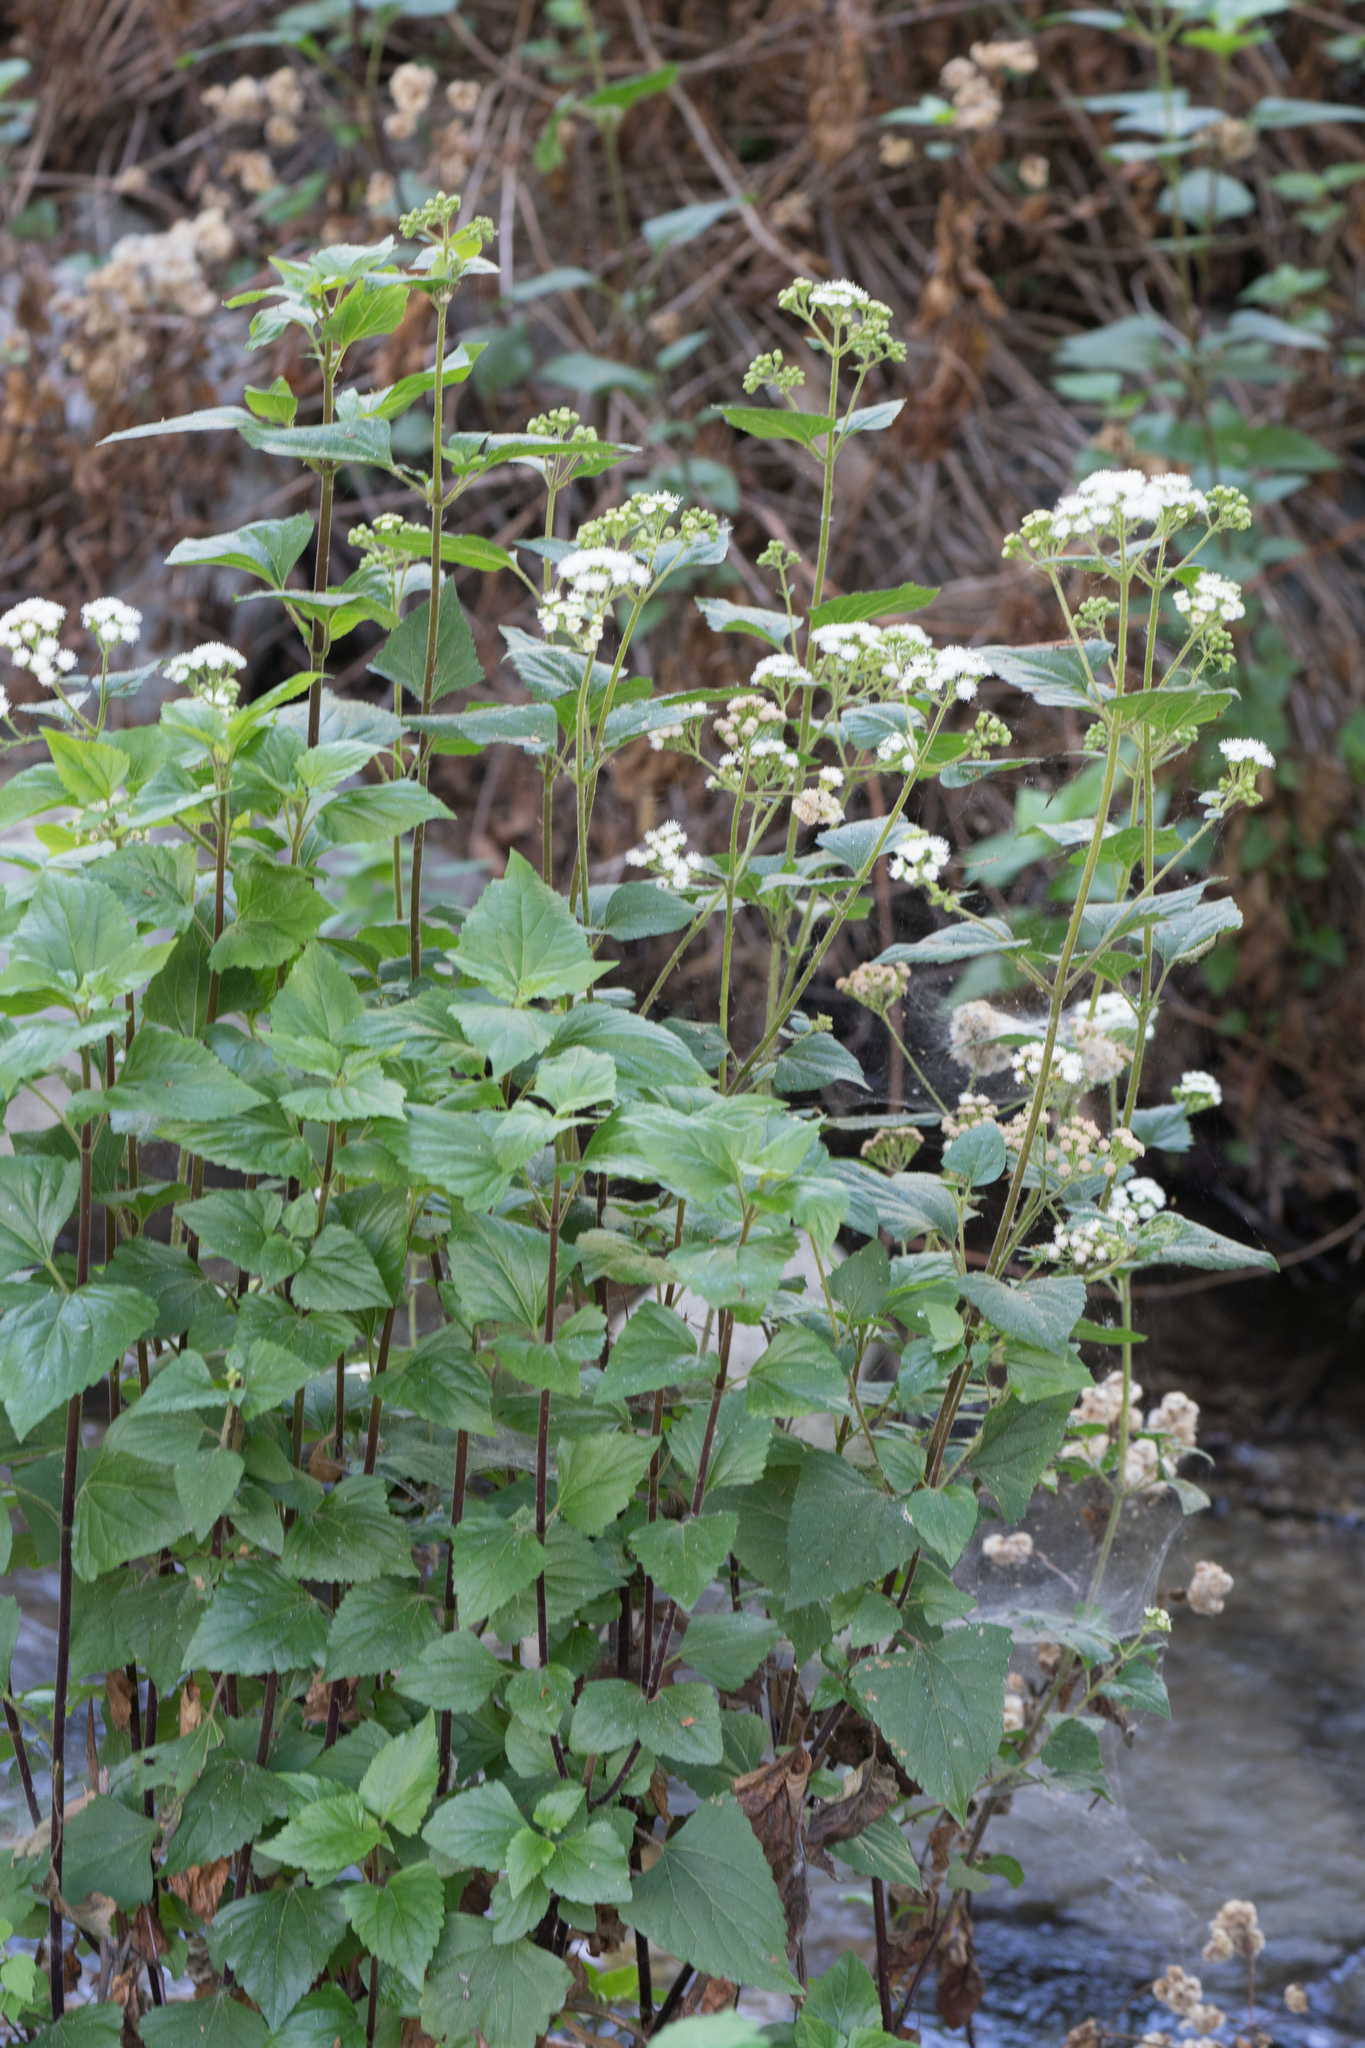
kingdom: Plantae
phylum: Tracheophyta
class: Magnoliopsida
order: Asterales
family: Asteraceae
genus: Ageratina
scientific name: Ageratina adenophora
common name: Sticky snakeroot
